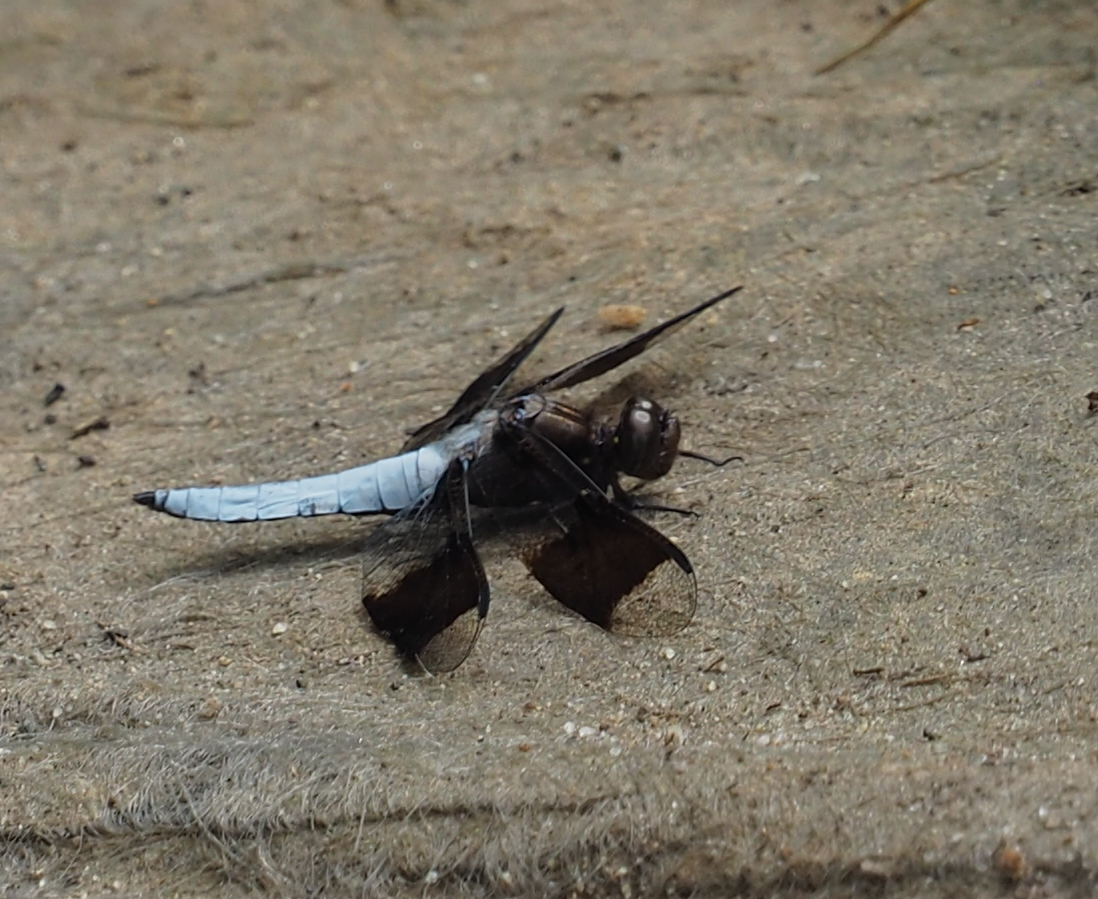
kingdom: Animalia
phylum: Arthropoda
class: Insecta
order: Odonata
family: Libellulidae
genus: Plathemis
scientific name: Plathemis lydia
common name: Common whitetail
